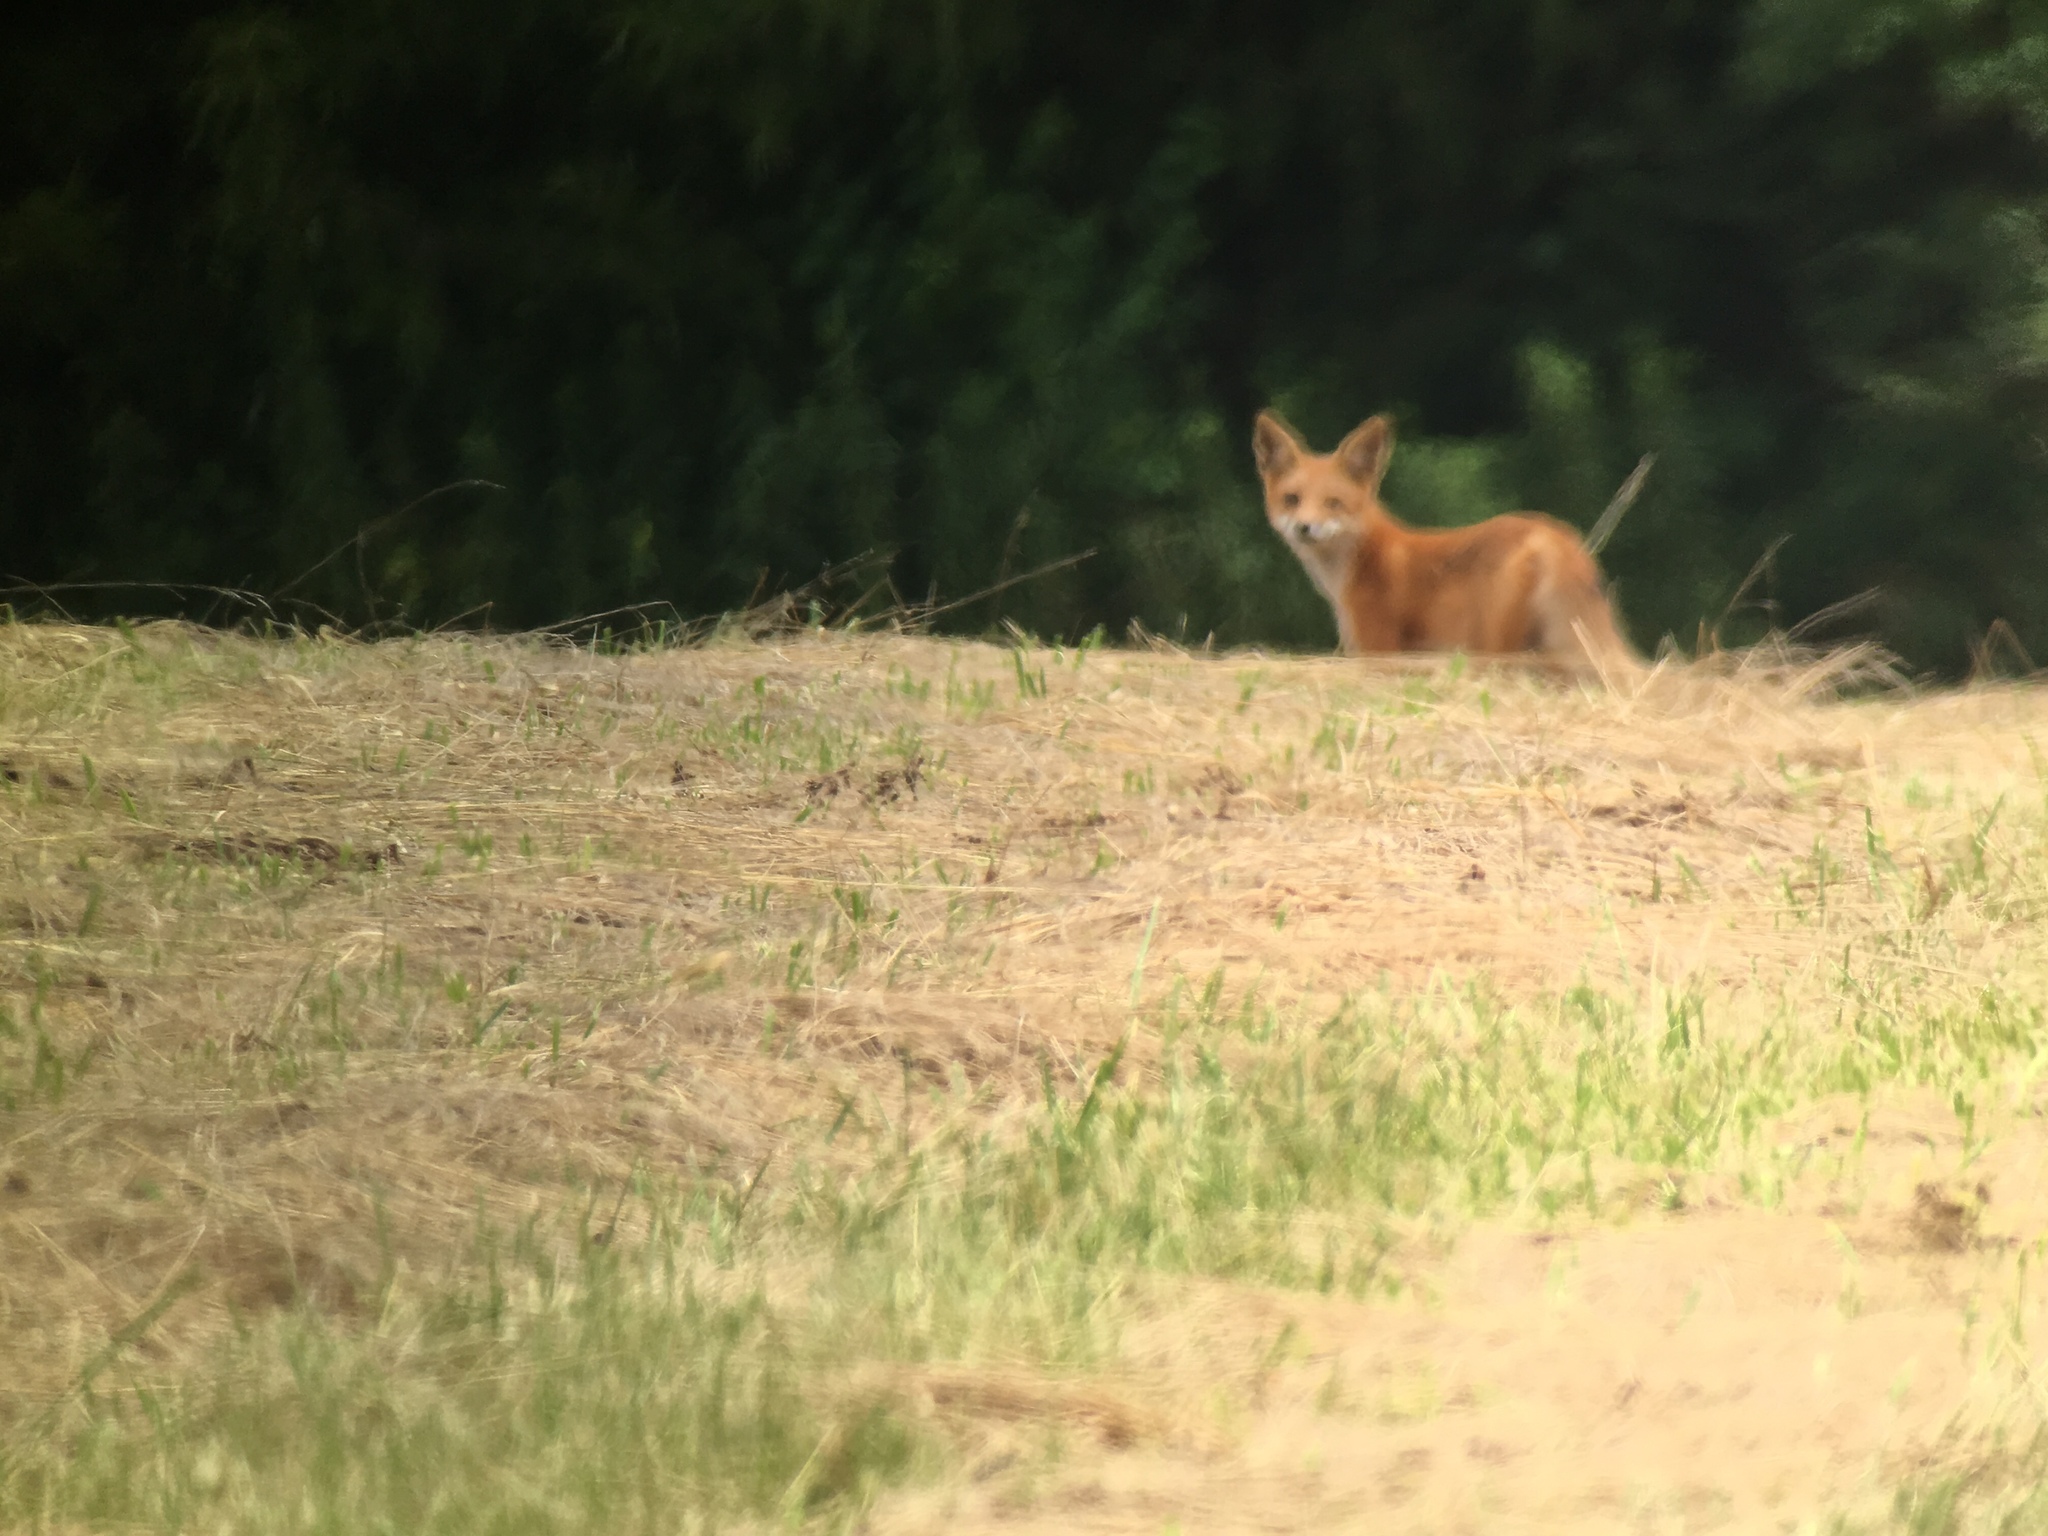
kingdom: Animalia
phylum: Chordata
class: Mammalia
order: Carnivora
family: Canidae
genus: Vulpes
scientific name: Vulpes vulpes
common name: Red fox
